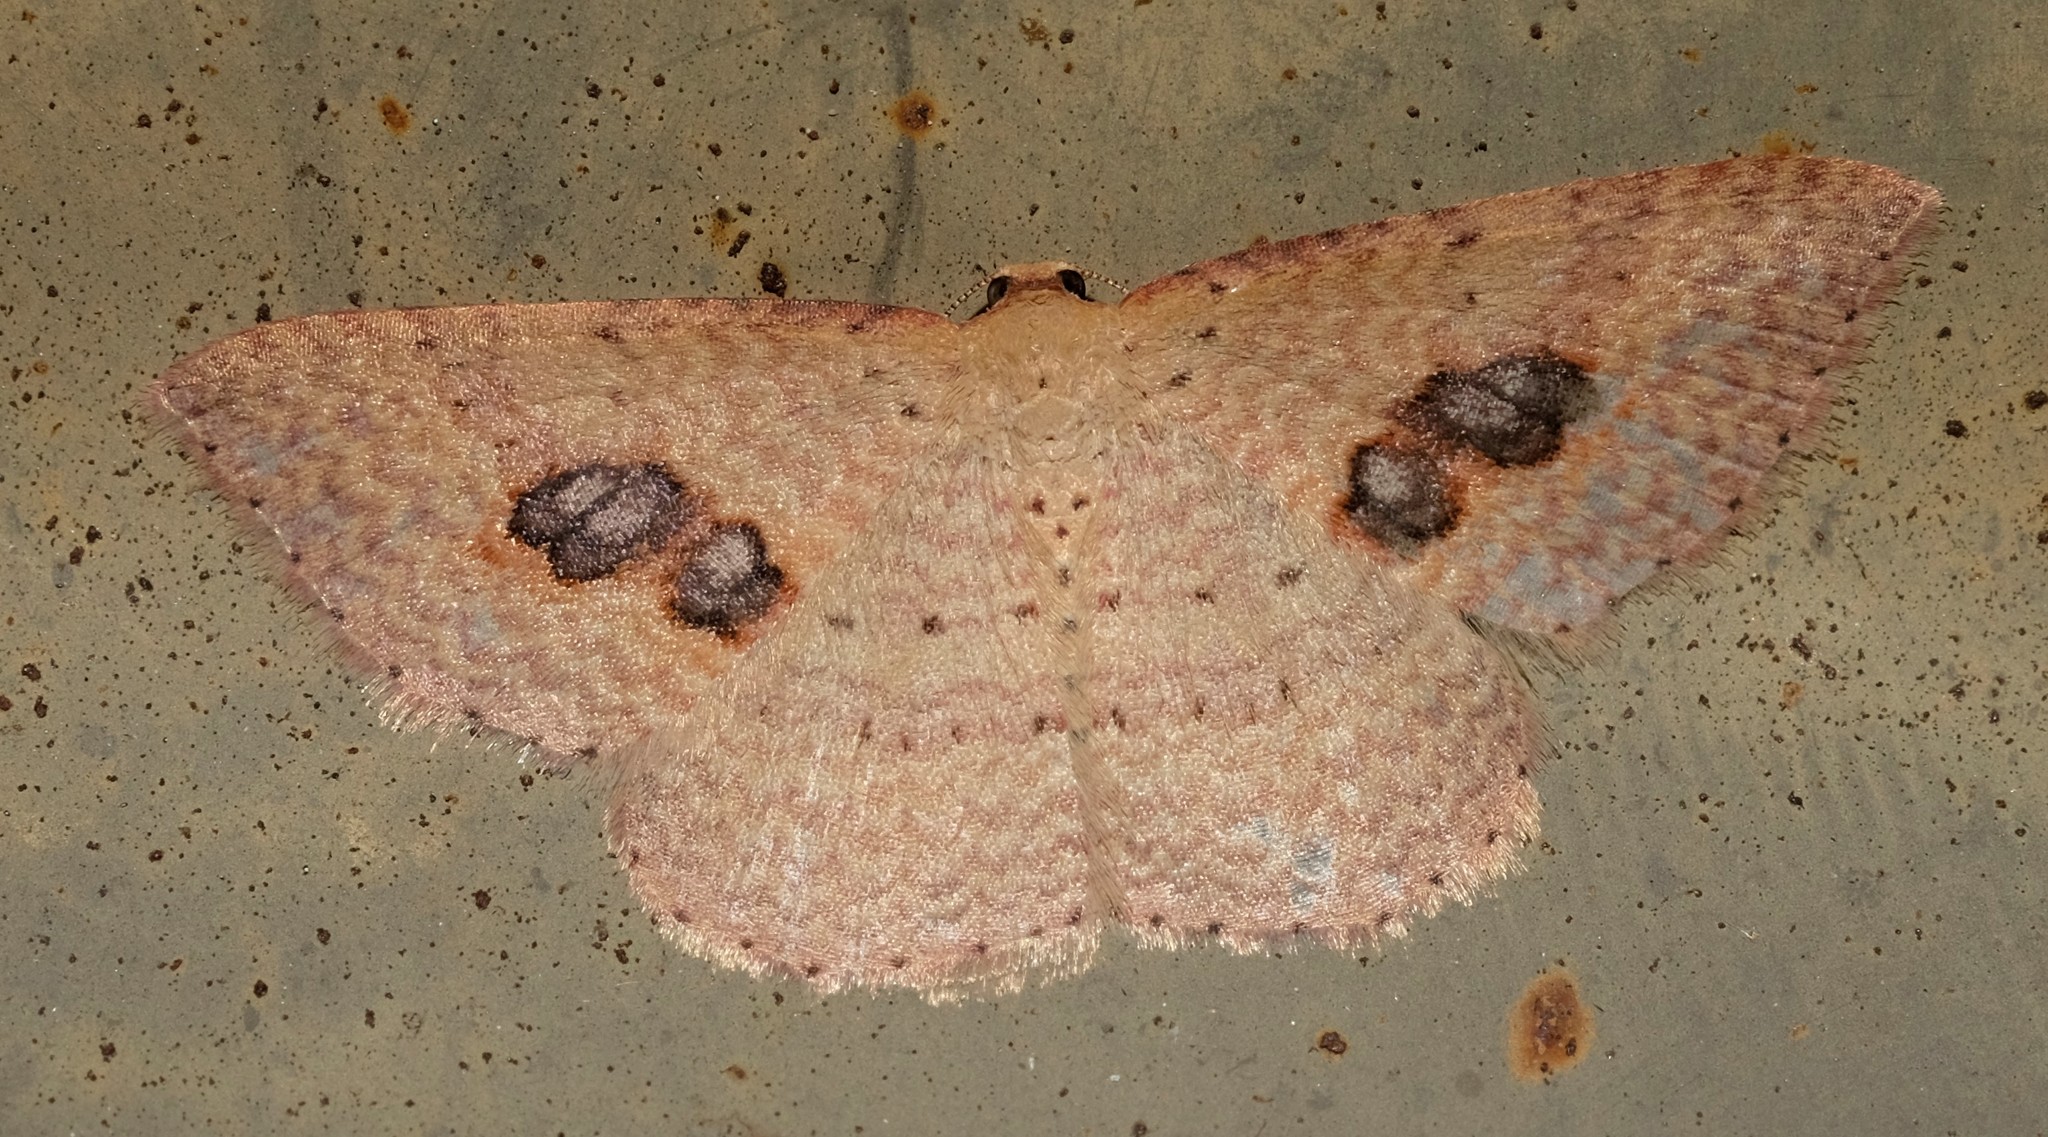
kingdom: Animalia
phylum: Arthropoda
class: Insecta
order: Lepidoptera
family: Geometridae
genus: Epicyme
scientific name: Epicyme rubropunctaria
